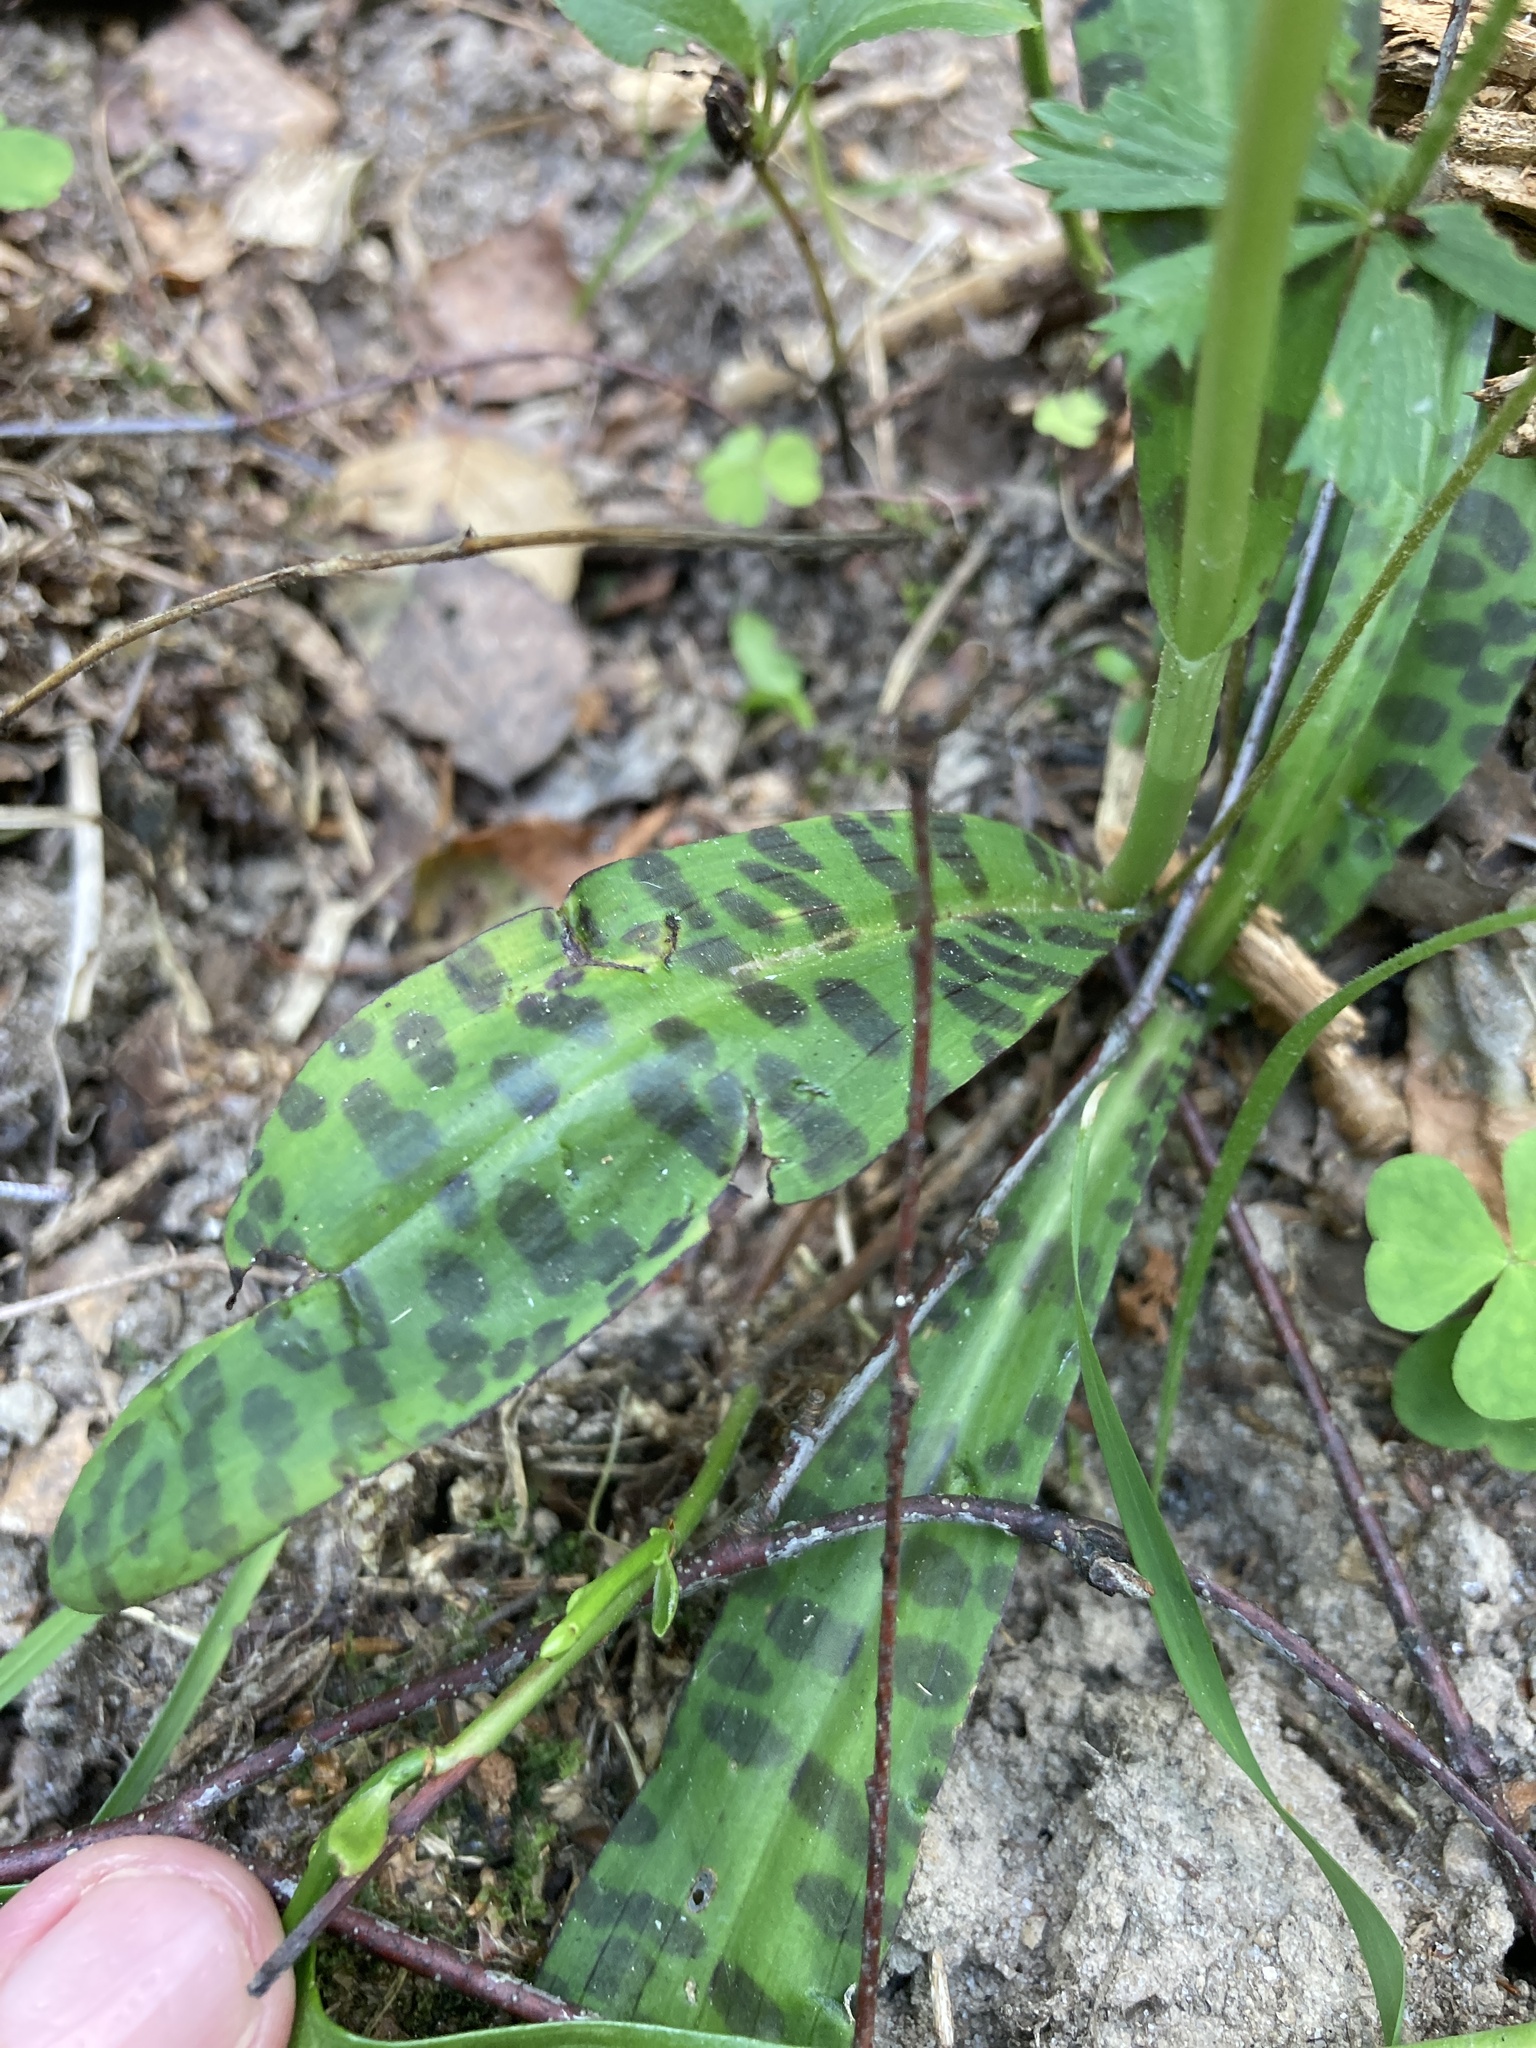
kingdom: Plantae
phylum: Tracheophyta
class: Liliopsida
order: Asparagales
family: Orchidaceae
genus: Dactylorhiza
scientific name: Dactylorhiza maculata
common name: Heath spotted-orchid
